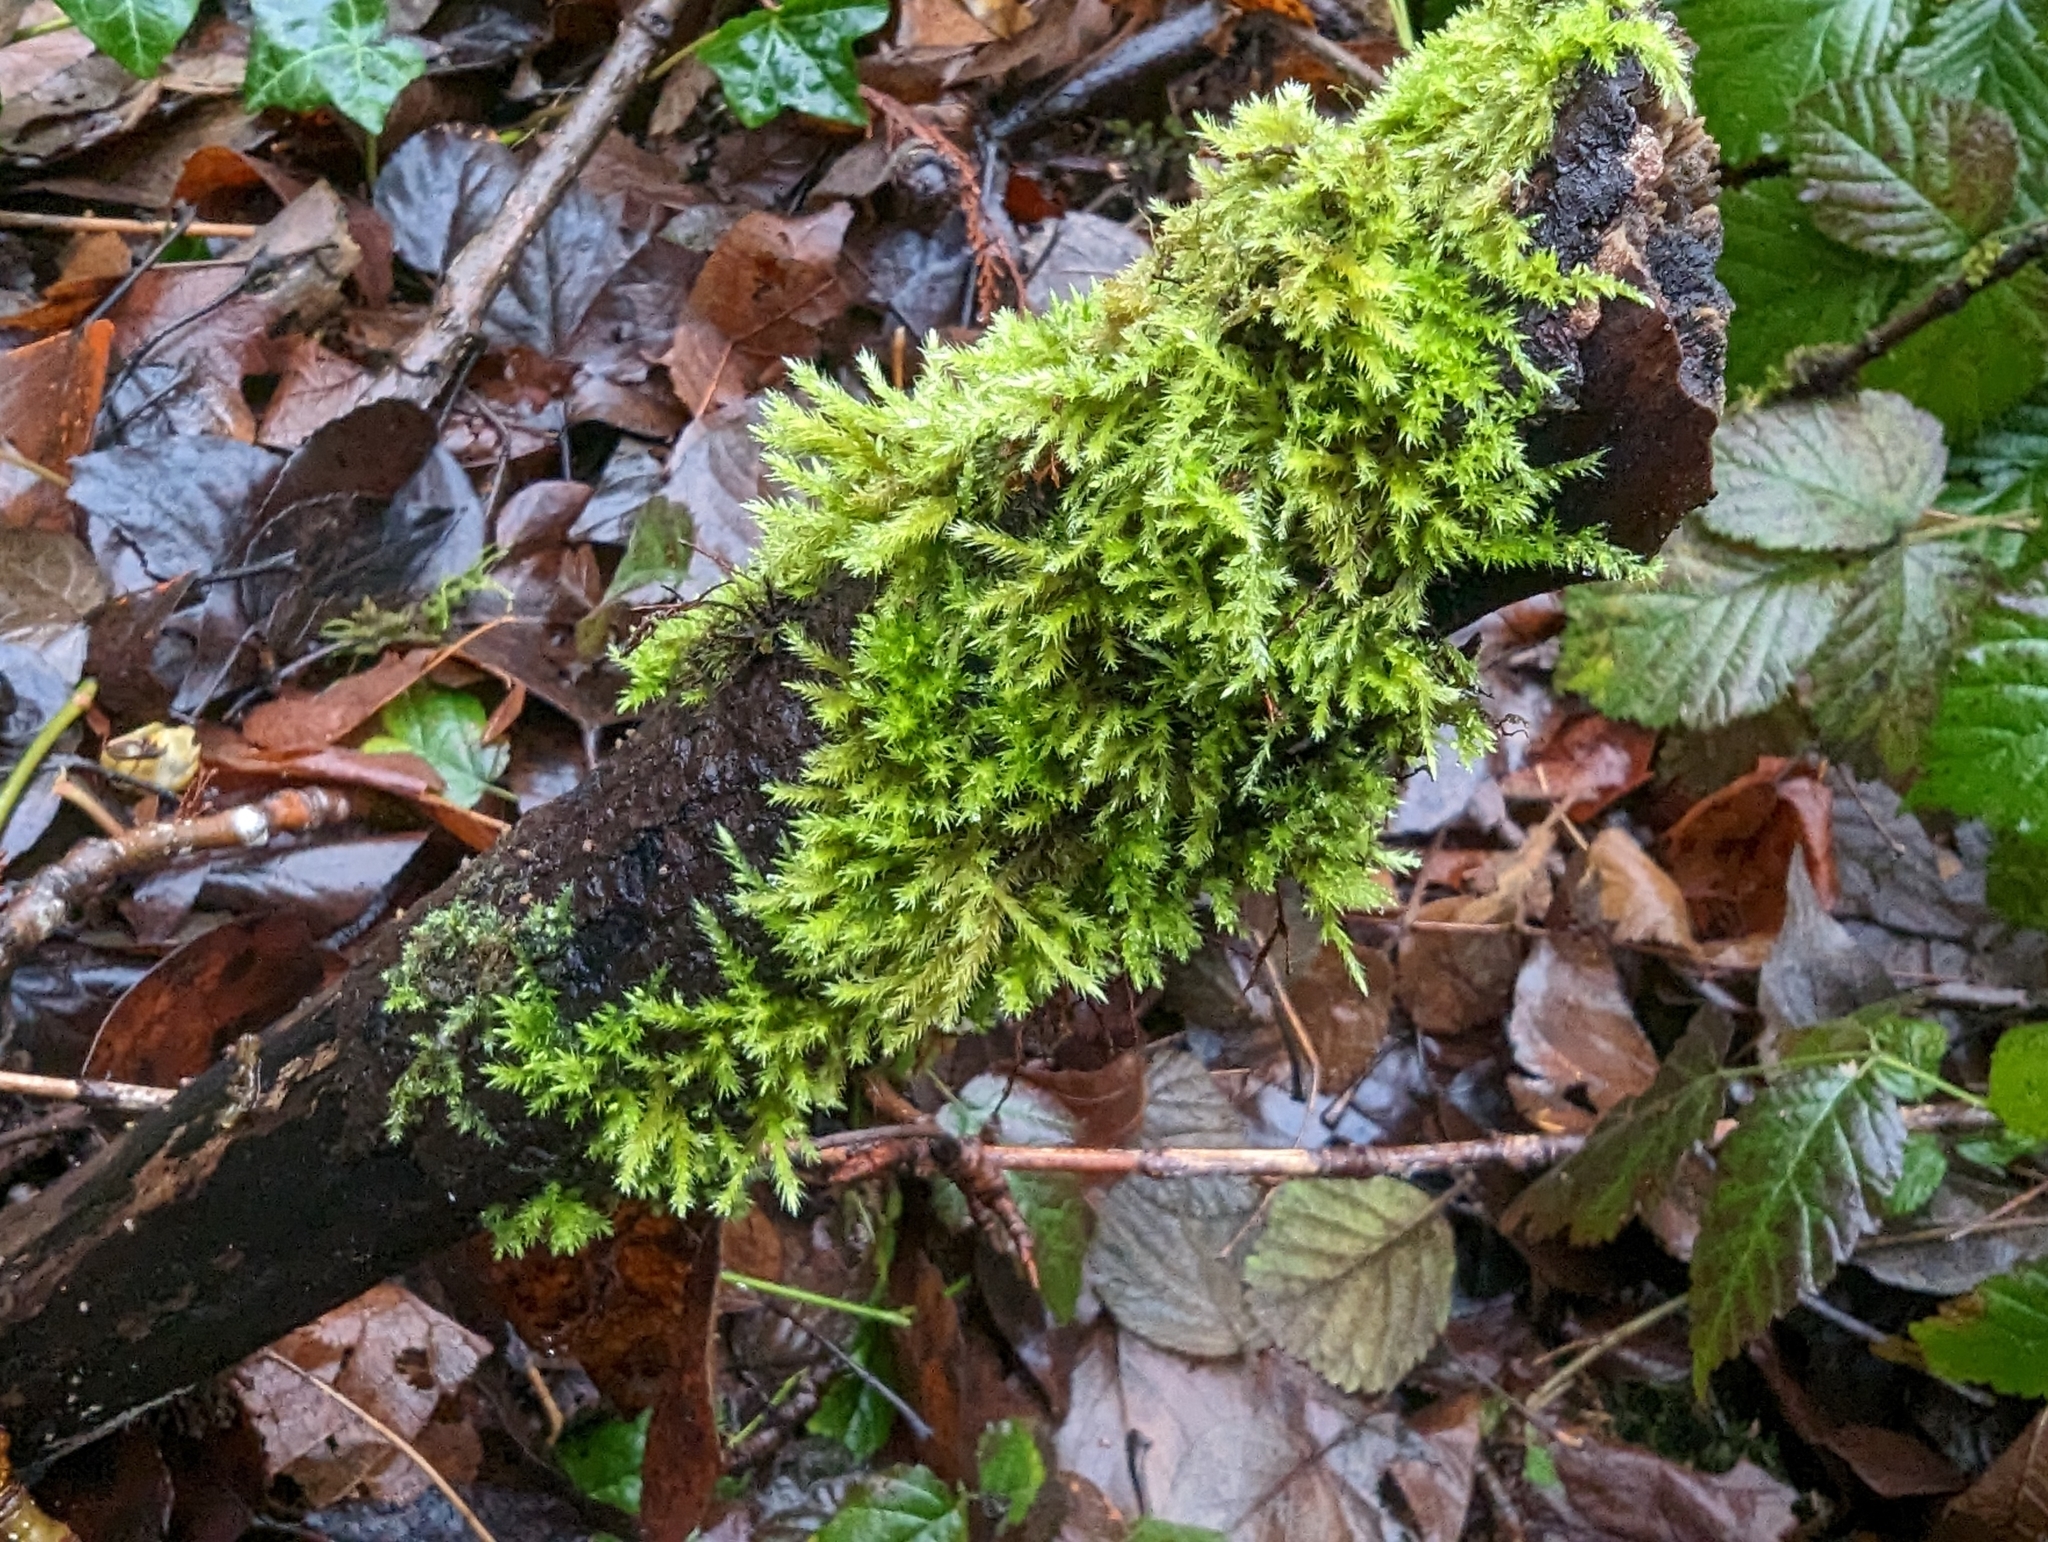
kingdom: Plantae
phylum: Bryophyta
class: Bryopsida
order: Hypnales
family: Brachytheciaceae
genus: Homalothecium
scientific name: Homalothecium fulgescens
